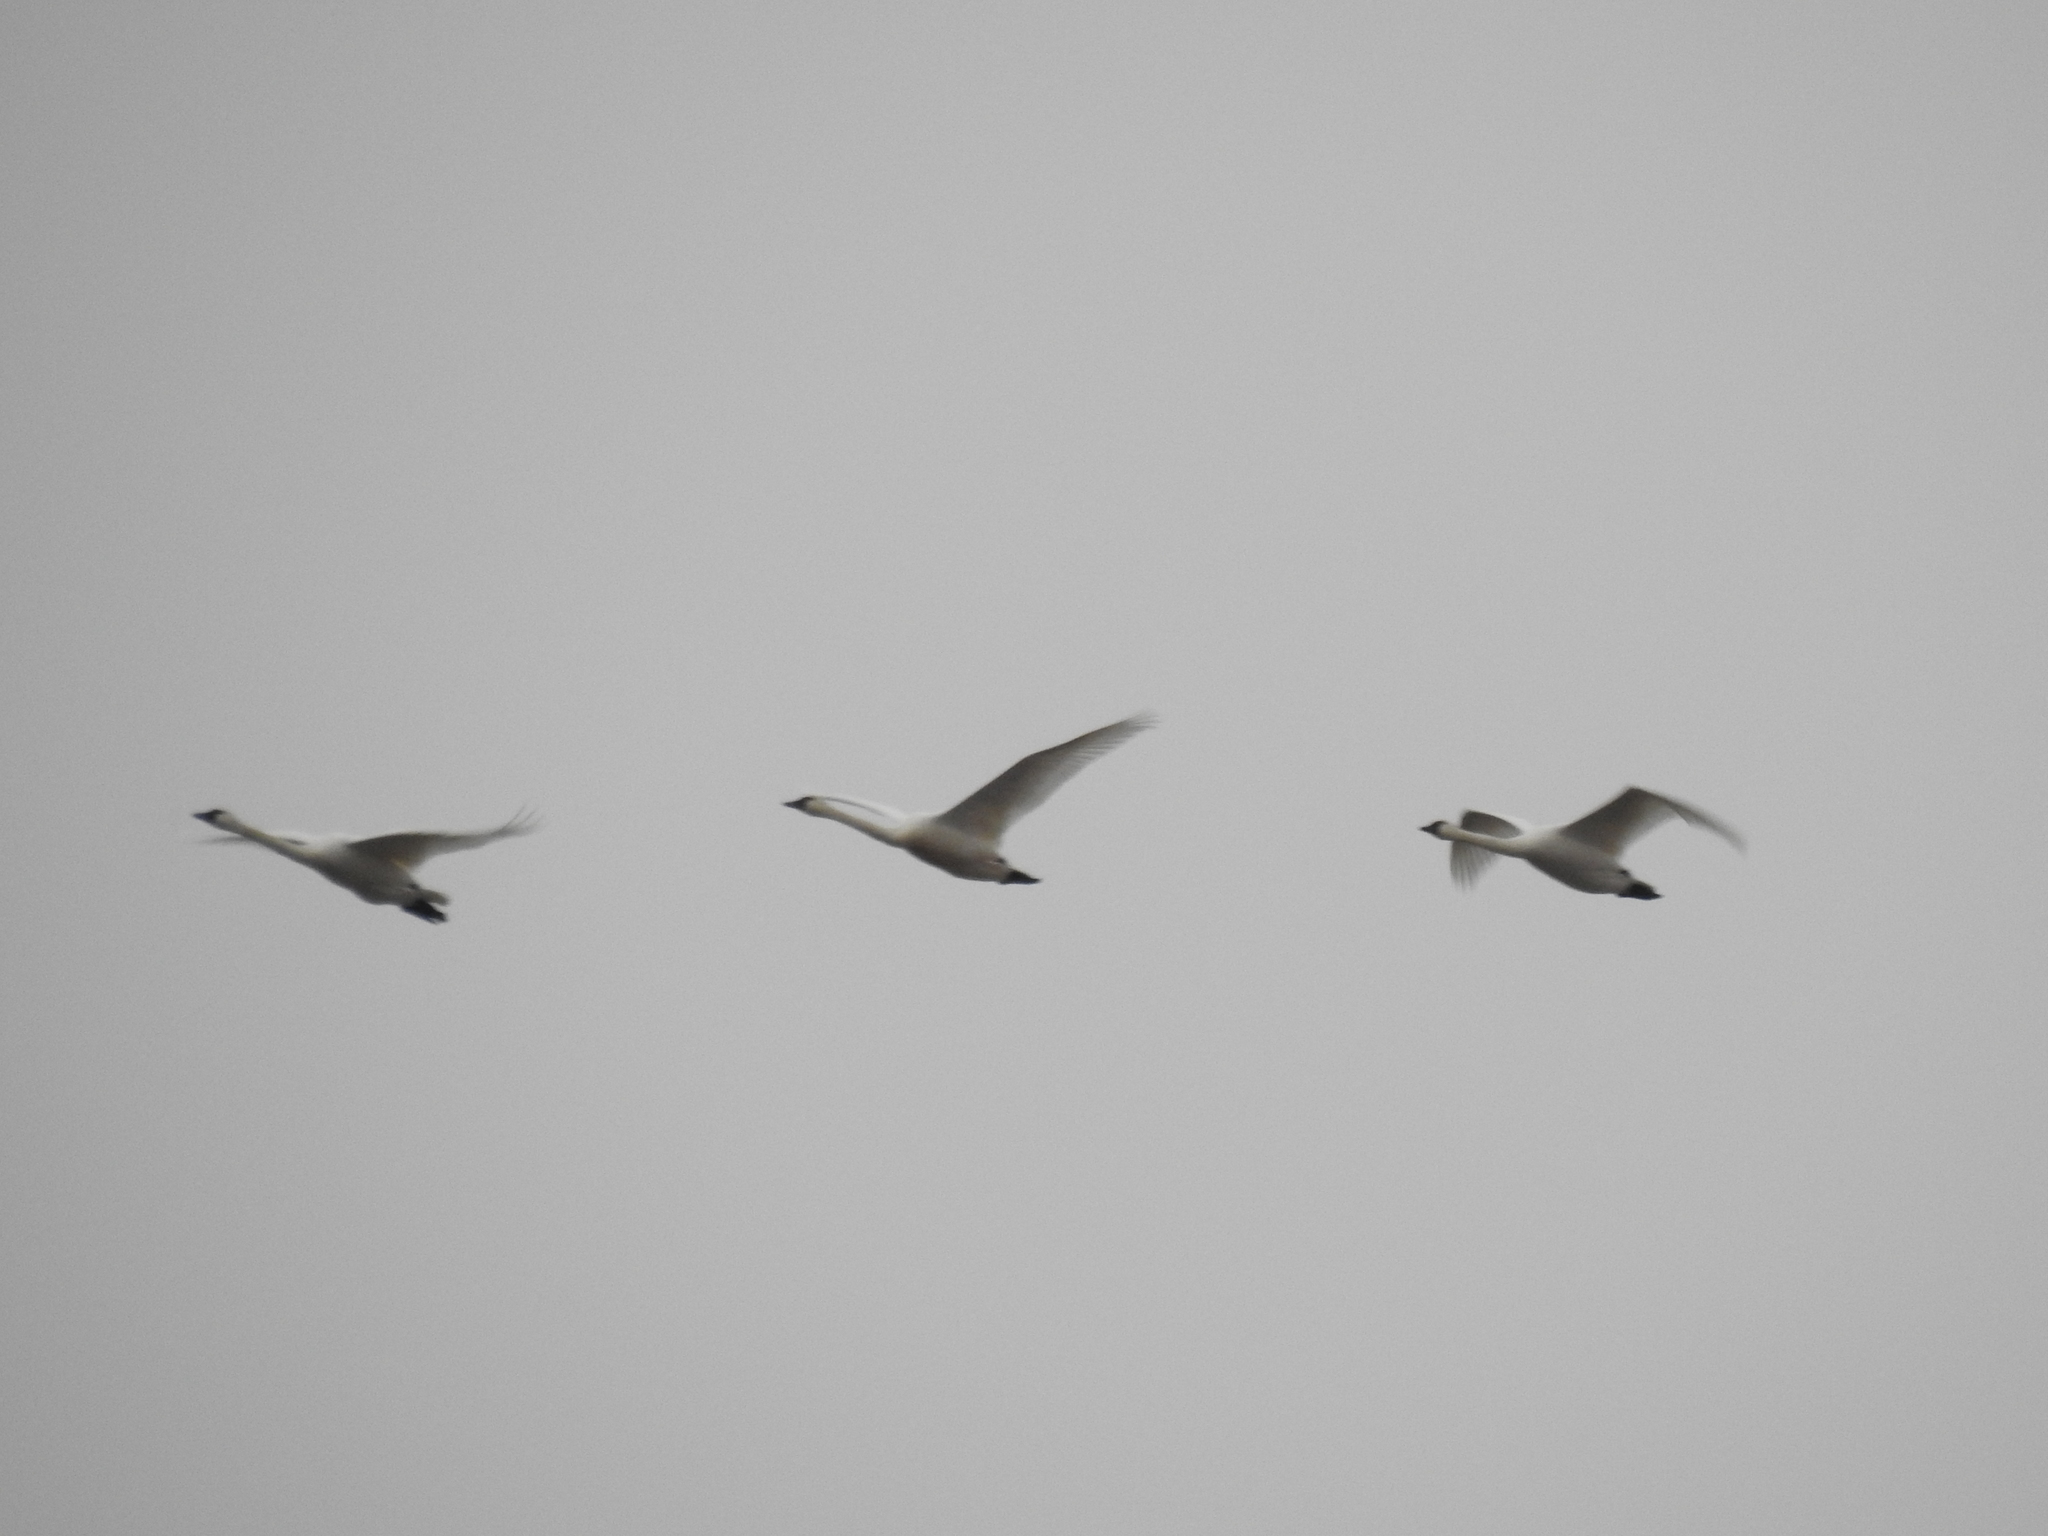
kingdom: Animalia
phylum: Chordata
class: Aves
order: Anseriformes
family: Anatidae
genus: Cygnus
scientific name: Cygnus columbianus
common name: Tundra swan
